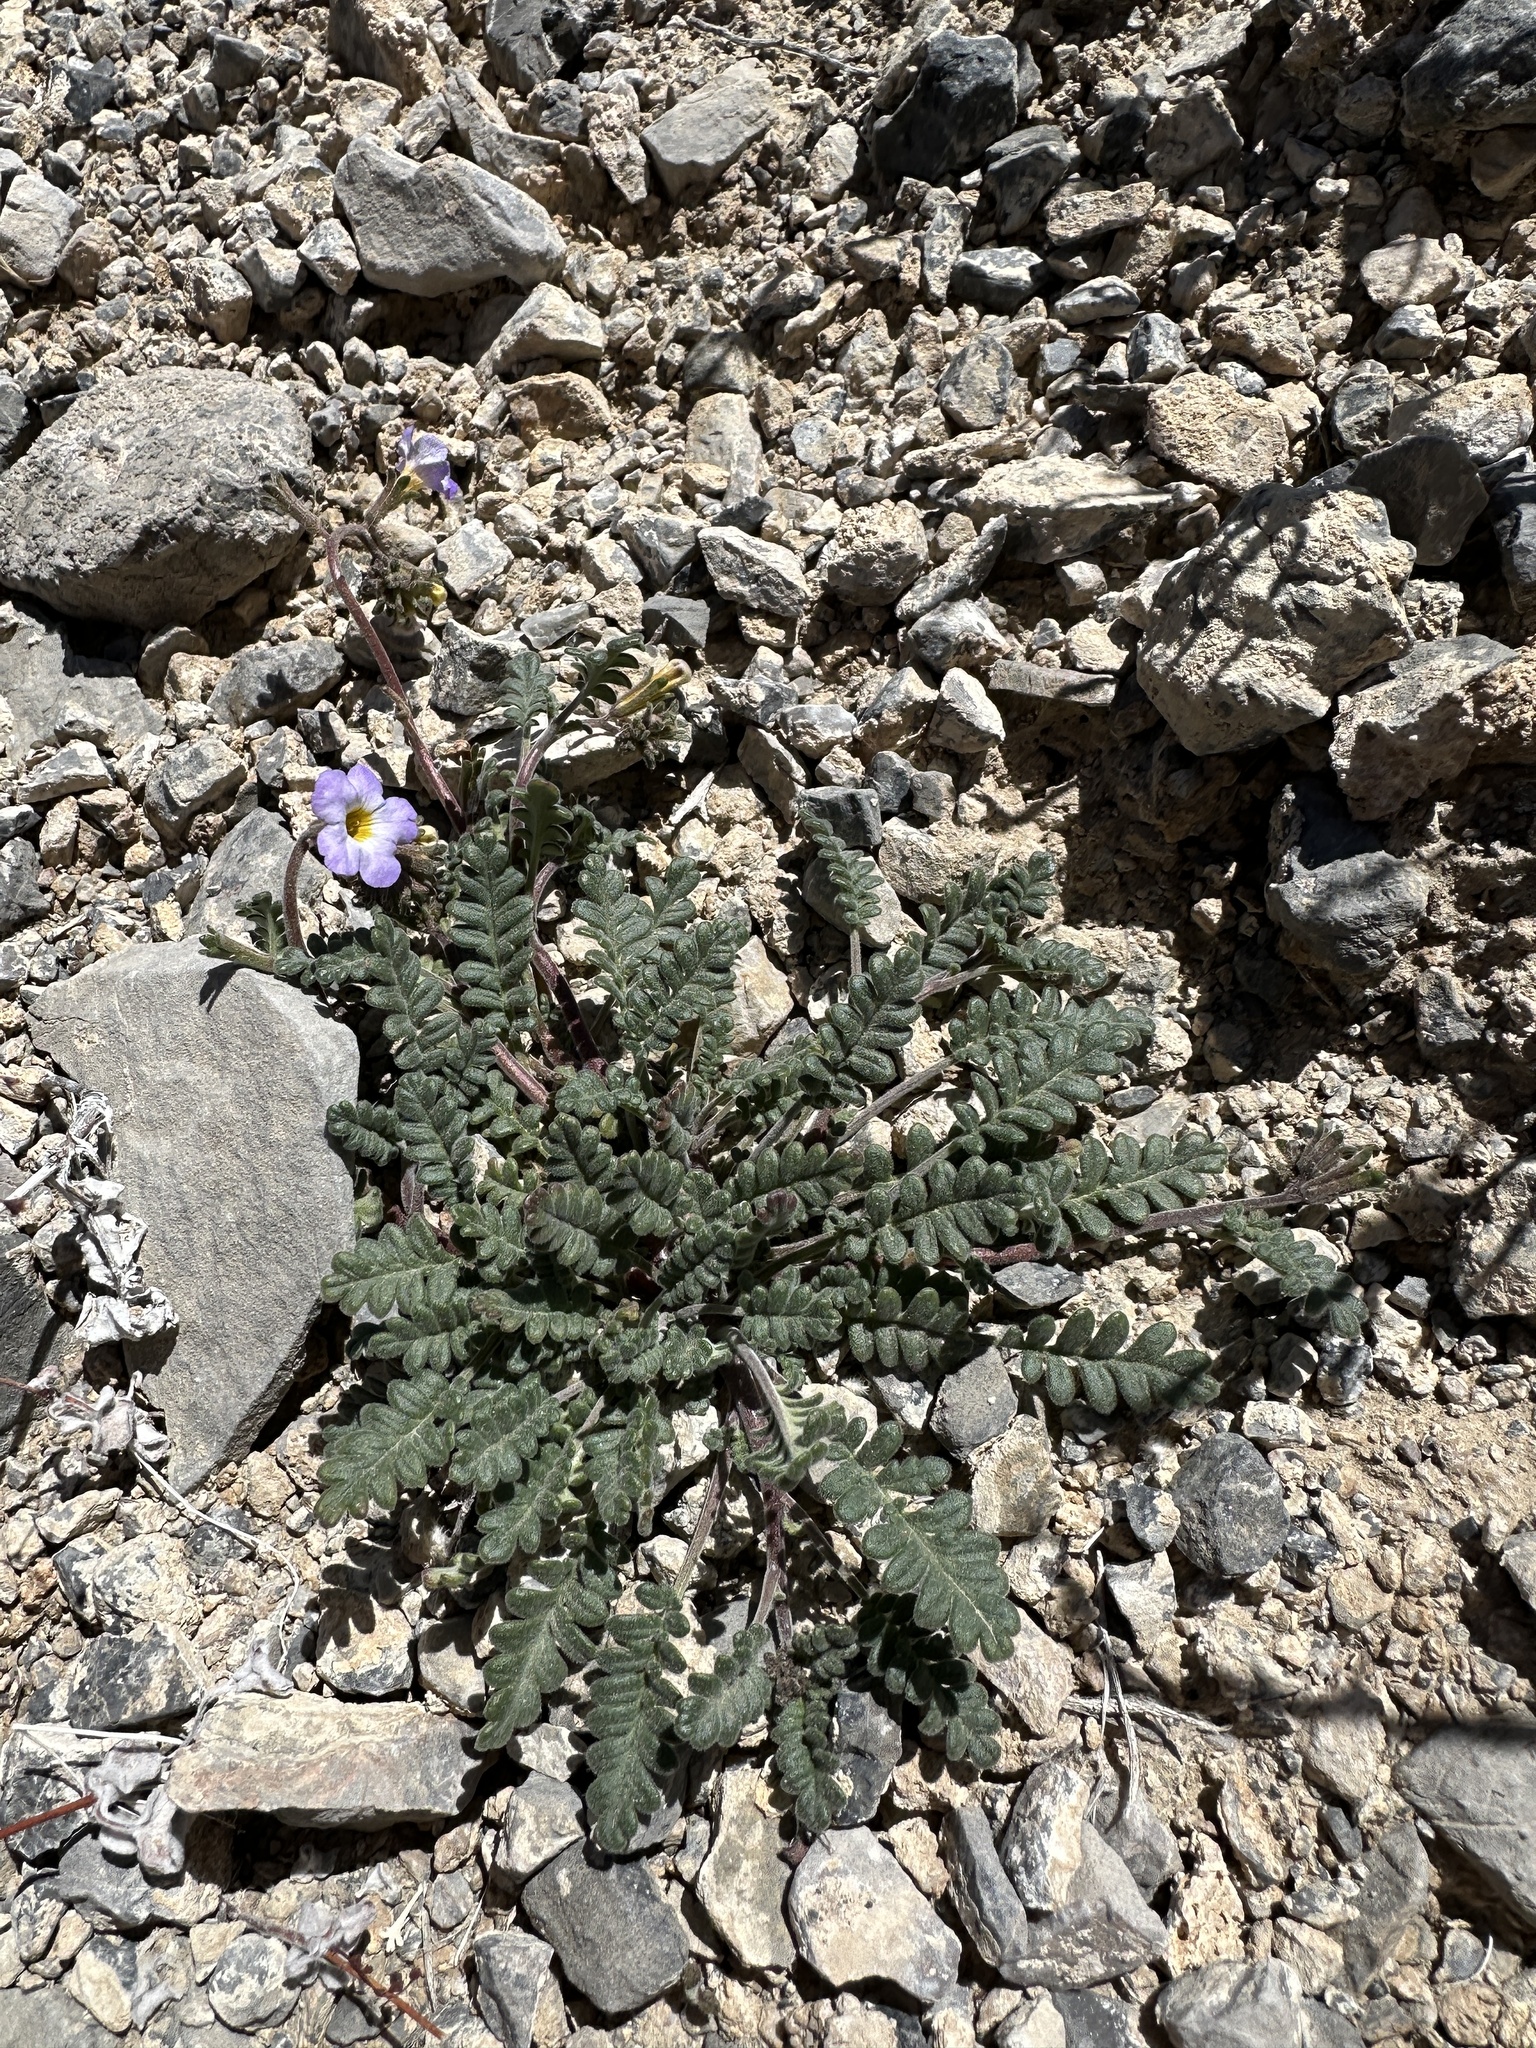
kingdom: Plantae
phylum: Tracheophyta
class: Magnoliopsida
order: Boraginales
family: Hydrophyllaceae
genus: Phacelia
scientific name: Phacelia fremontii
